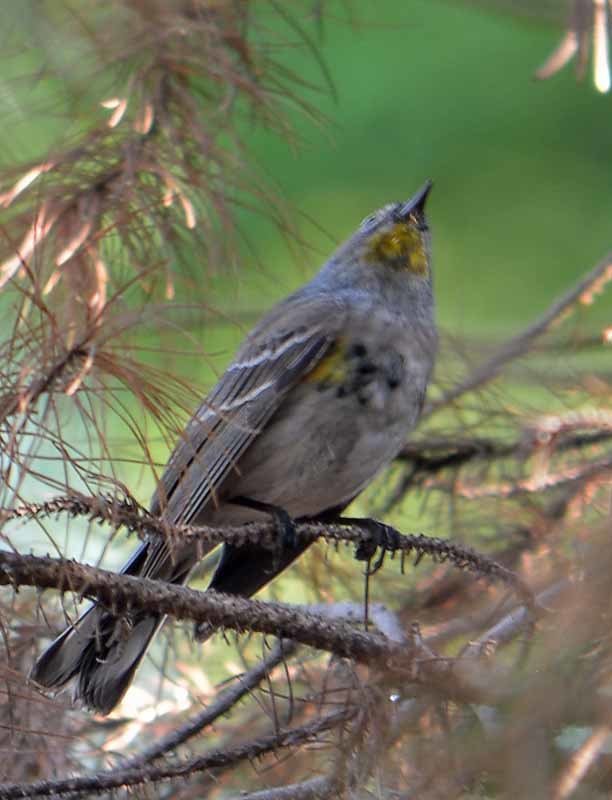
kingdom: Animalia
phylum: Chordata
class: Aves
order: Passeriformes
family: Parulidae
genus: Setophaga
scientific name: Setophaga coronata
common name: Myrtle warbler
